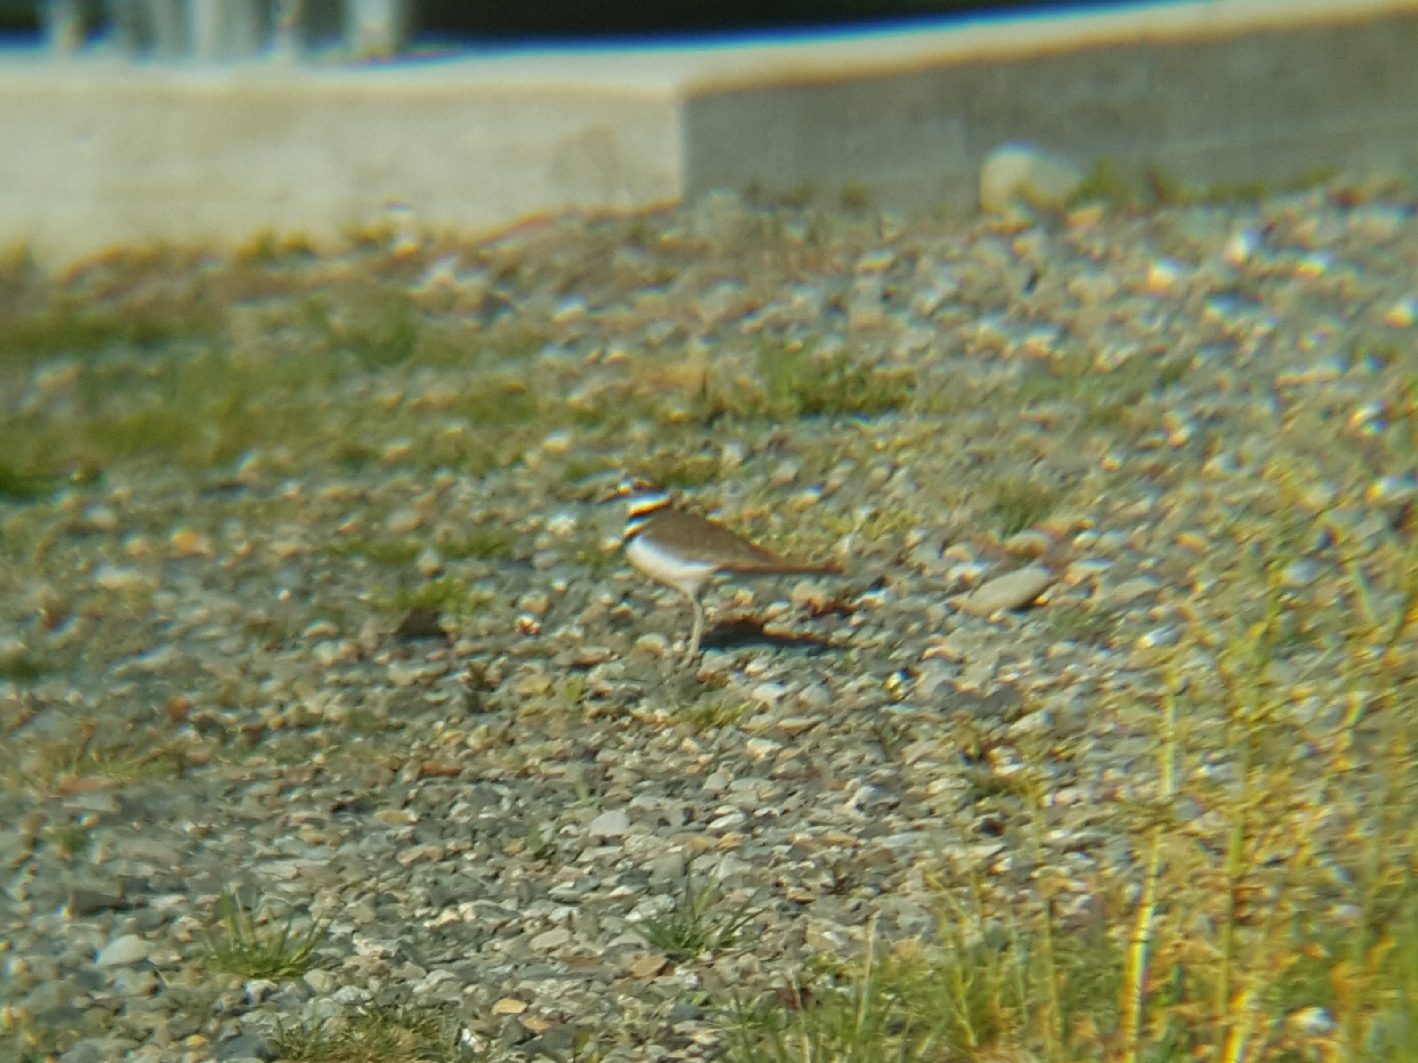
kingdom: Animalia
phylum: Chordata
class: Aves
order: Charadriiformes
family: Charadriidae
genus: Charadrius
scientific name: Charadrius vociferus
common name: Killdeer
